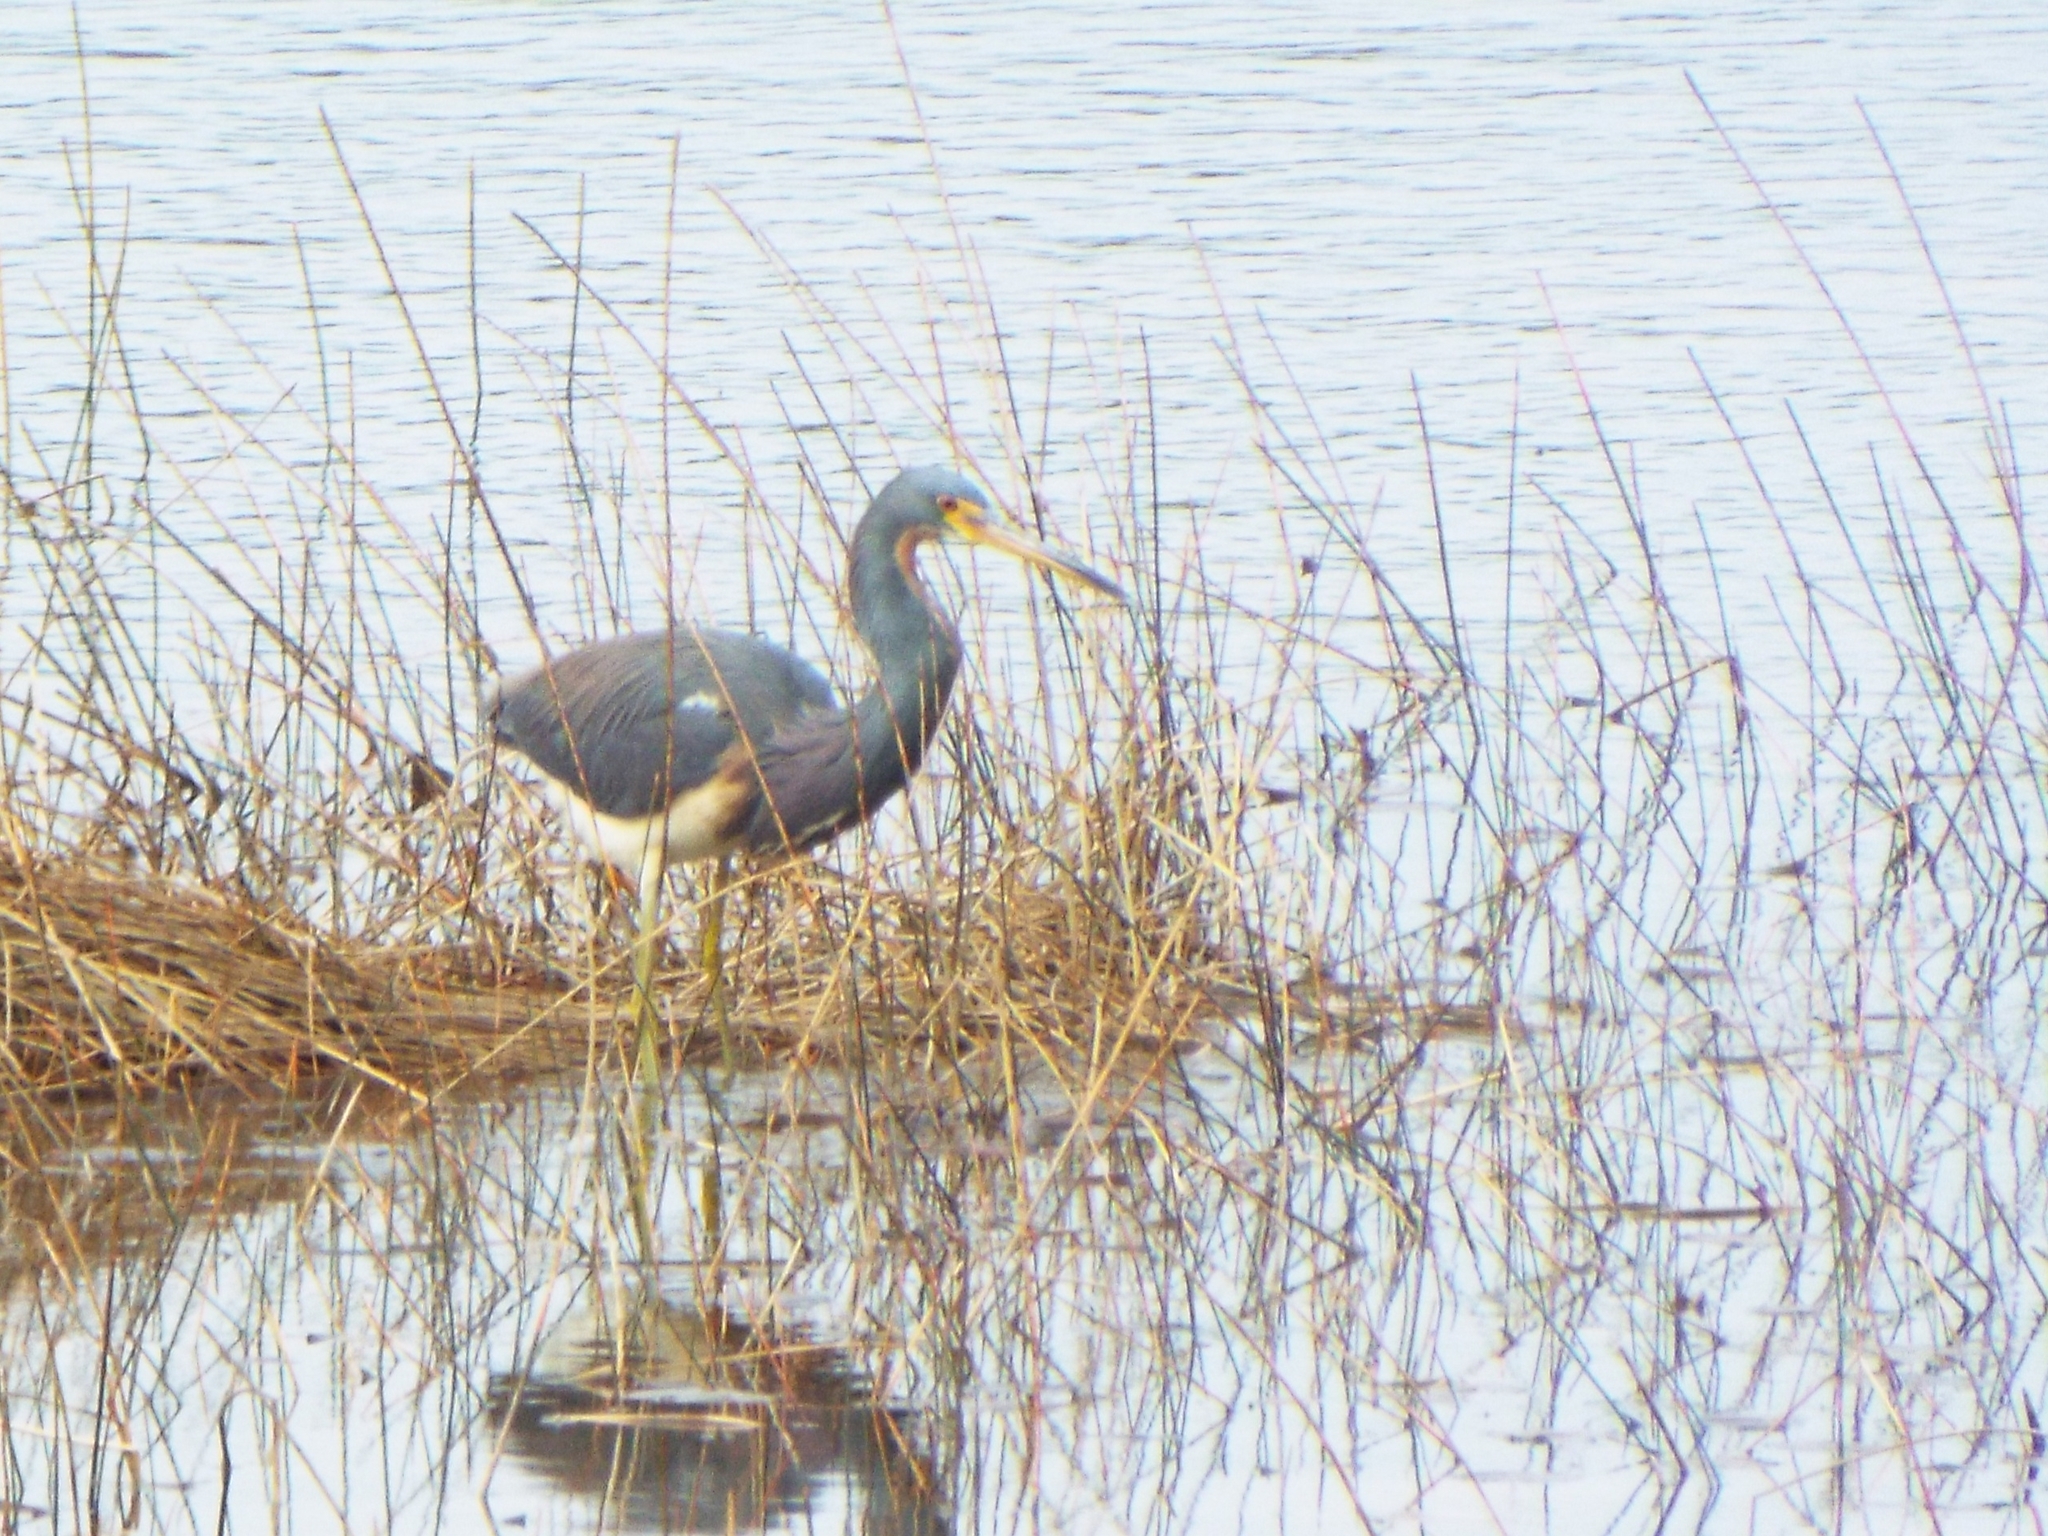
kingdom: Animalia
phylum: Chordata
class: Aves
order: Pelecaniformes
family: Ardeidae
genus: Egretta
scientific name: Egretta tricolor
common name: Tricolored heron
